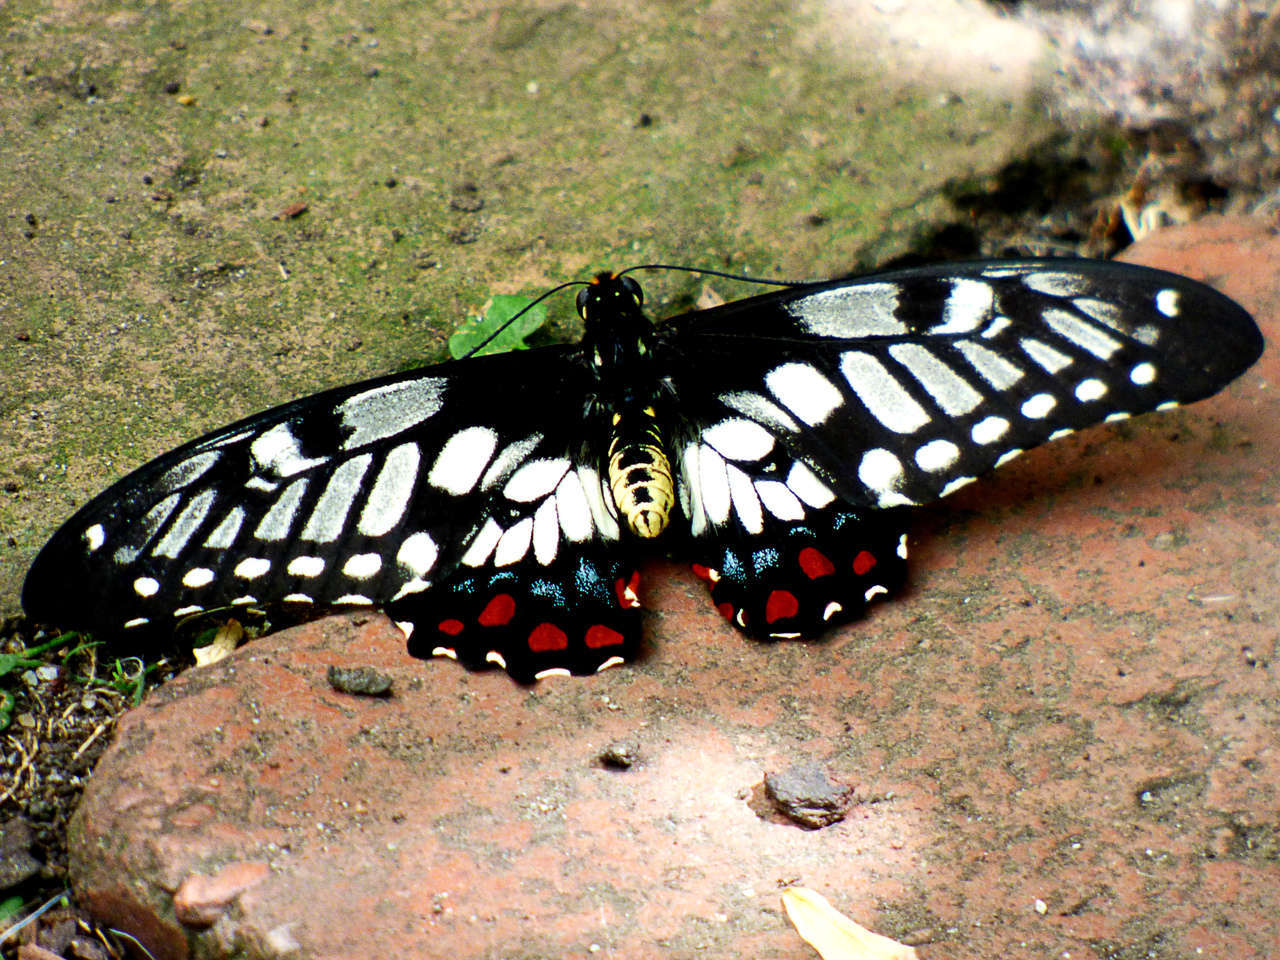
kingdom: Animalia
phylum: Arthropoda
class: Insecta
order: Lepidoptera
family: Papilionidae
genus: Papilio
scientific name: Papilio anactus
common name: Dingy swallowtail
